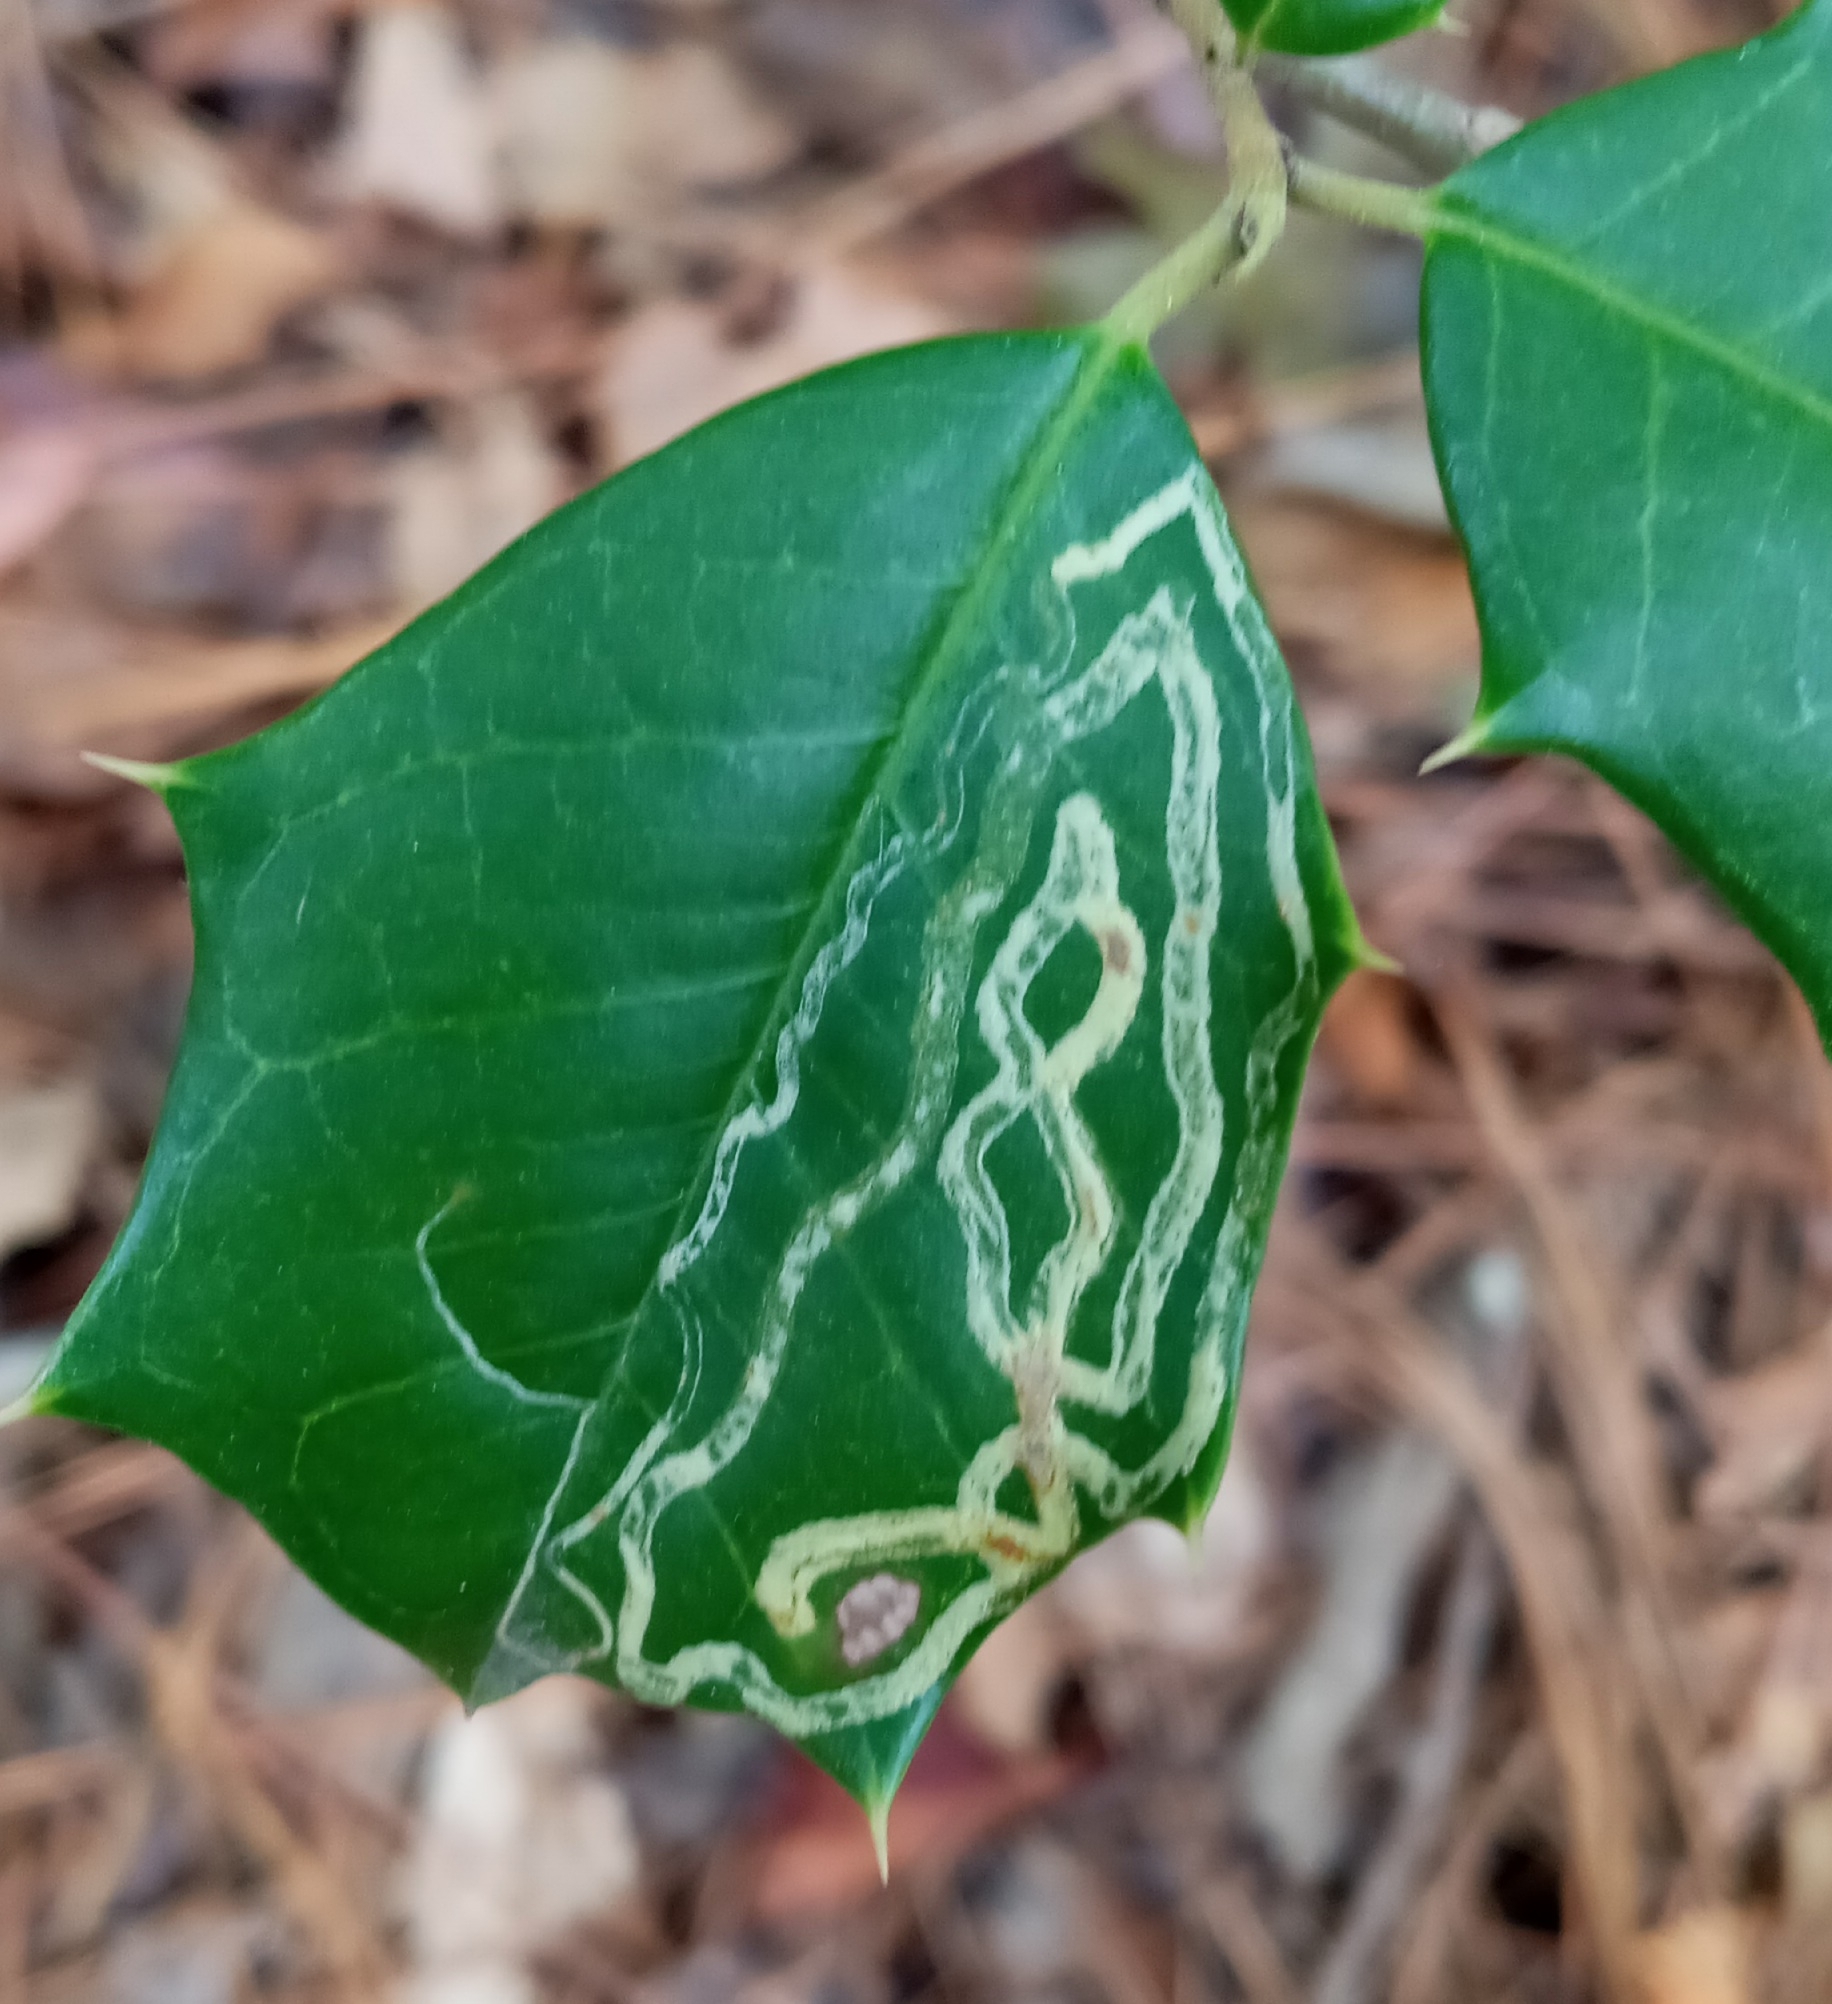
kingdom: Animalia
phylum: Arthropoda
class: Insecta
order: Diptera
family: Agromyzidae
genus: Phytomyza
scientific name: Phytomyza opacae
